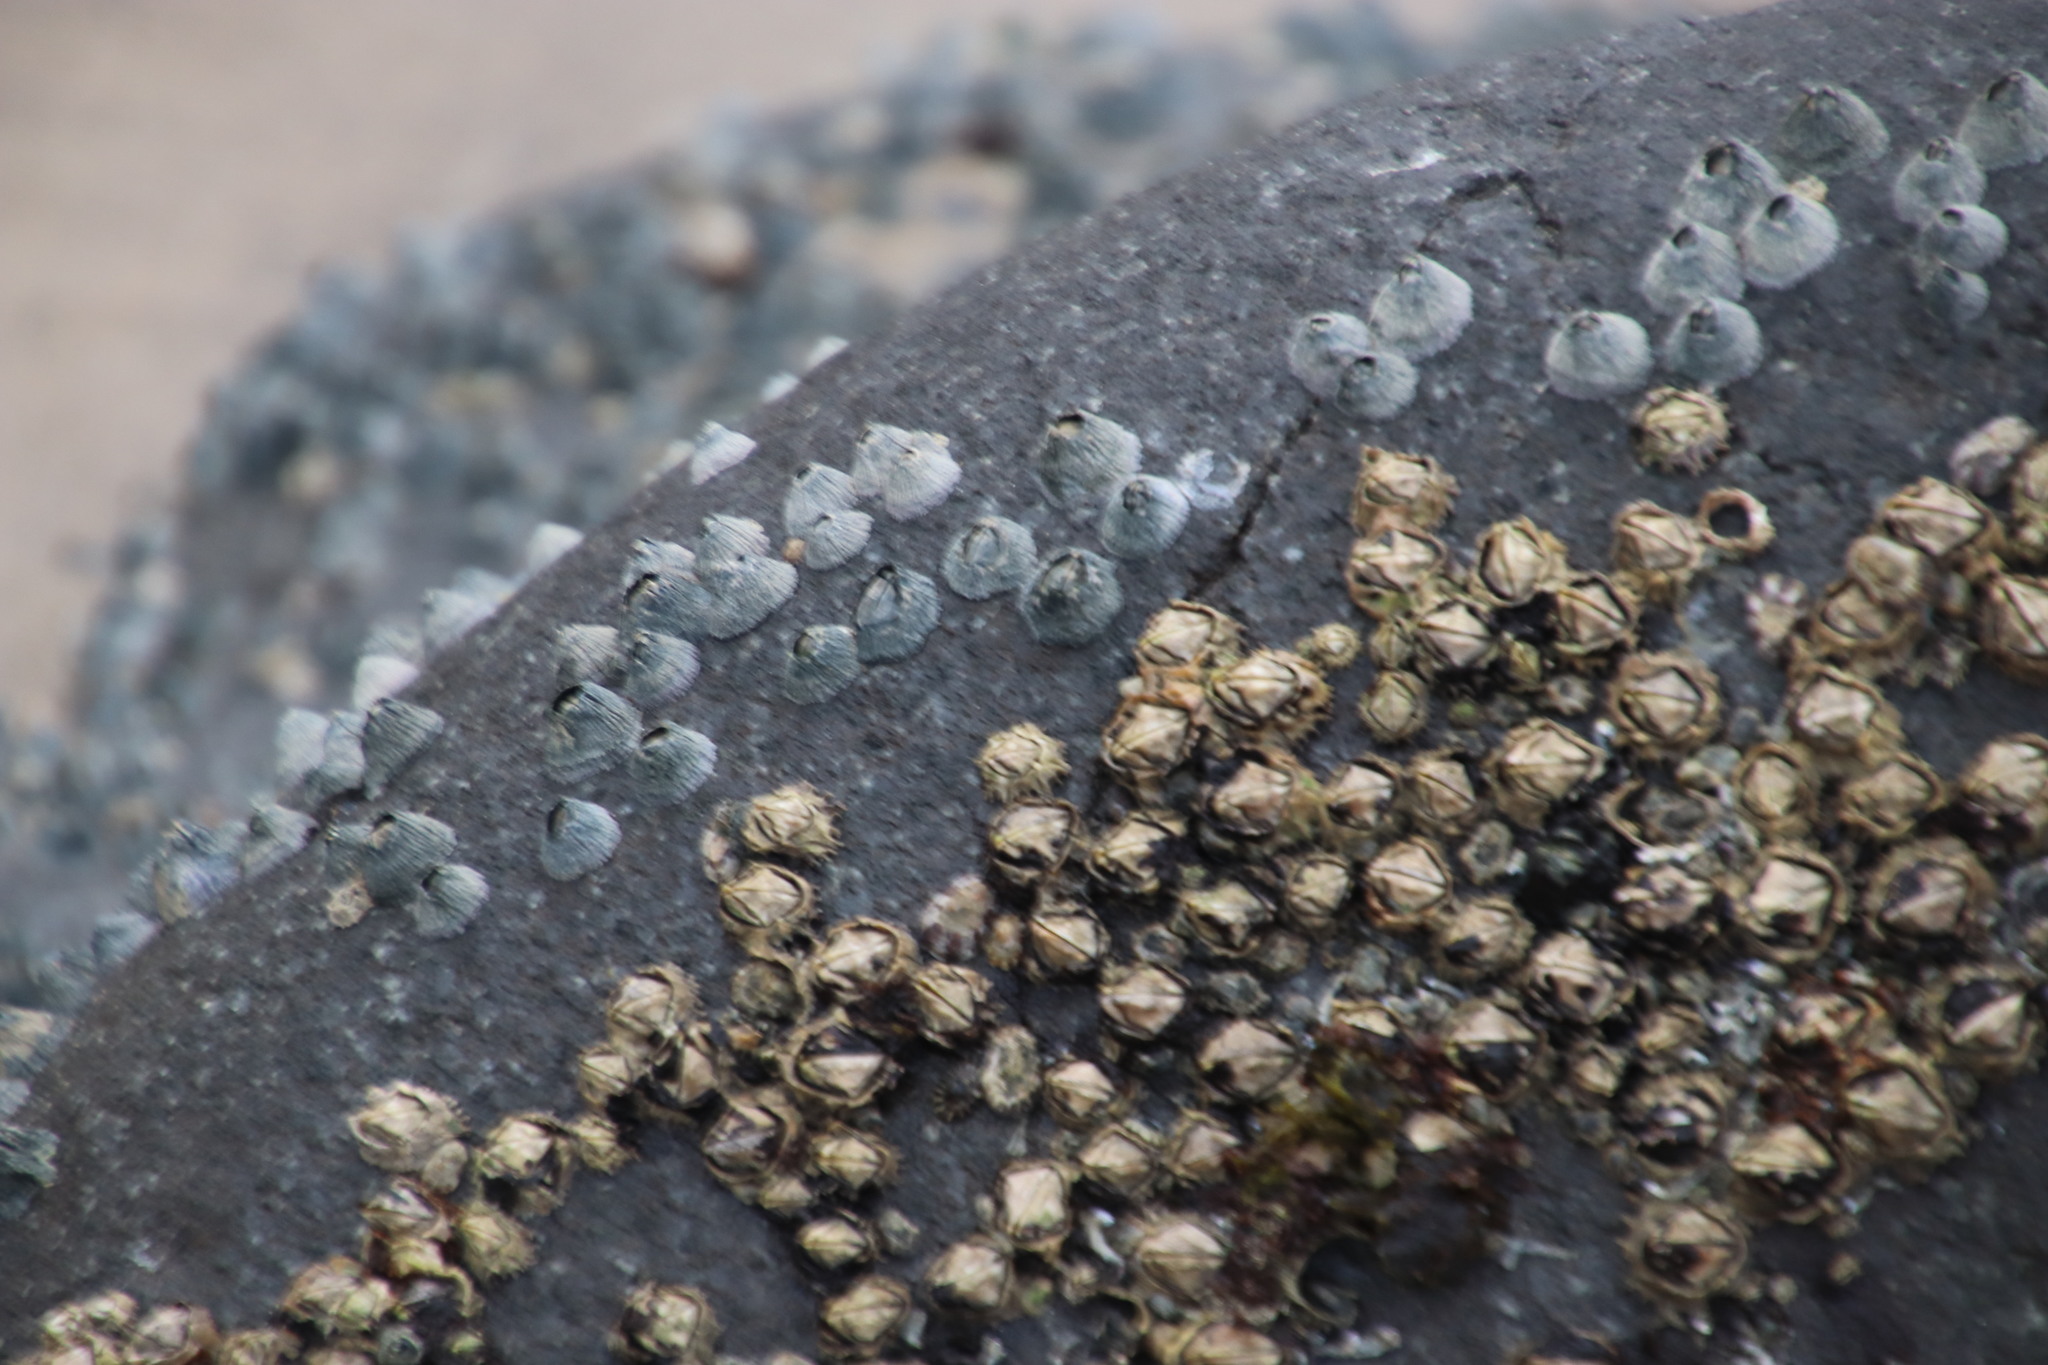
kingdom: Animalia
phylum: Arthropoda
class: Maxillopoda
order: Sessilia
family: Chthamalidae
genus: Octomeris
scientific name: Octomeris angulosa
